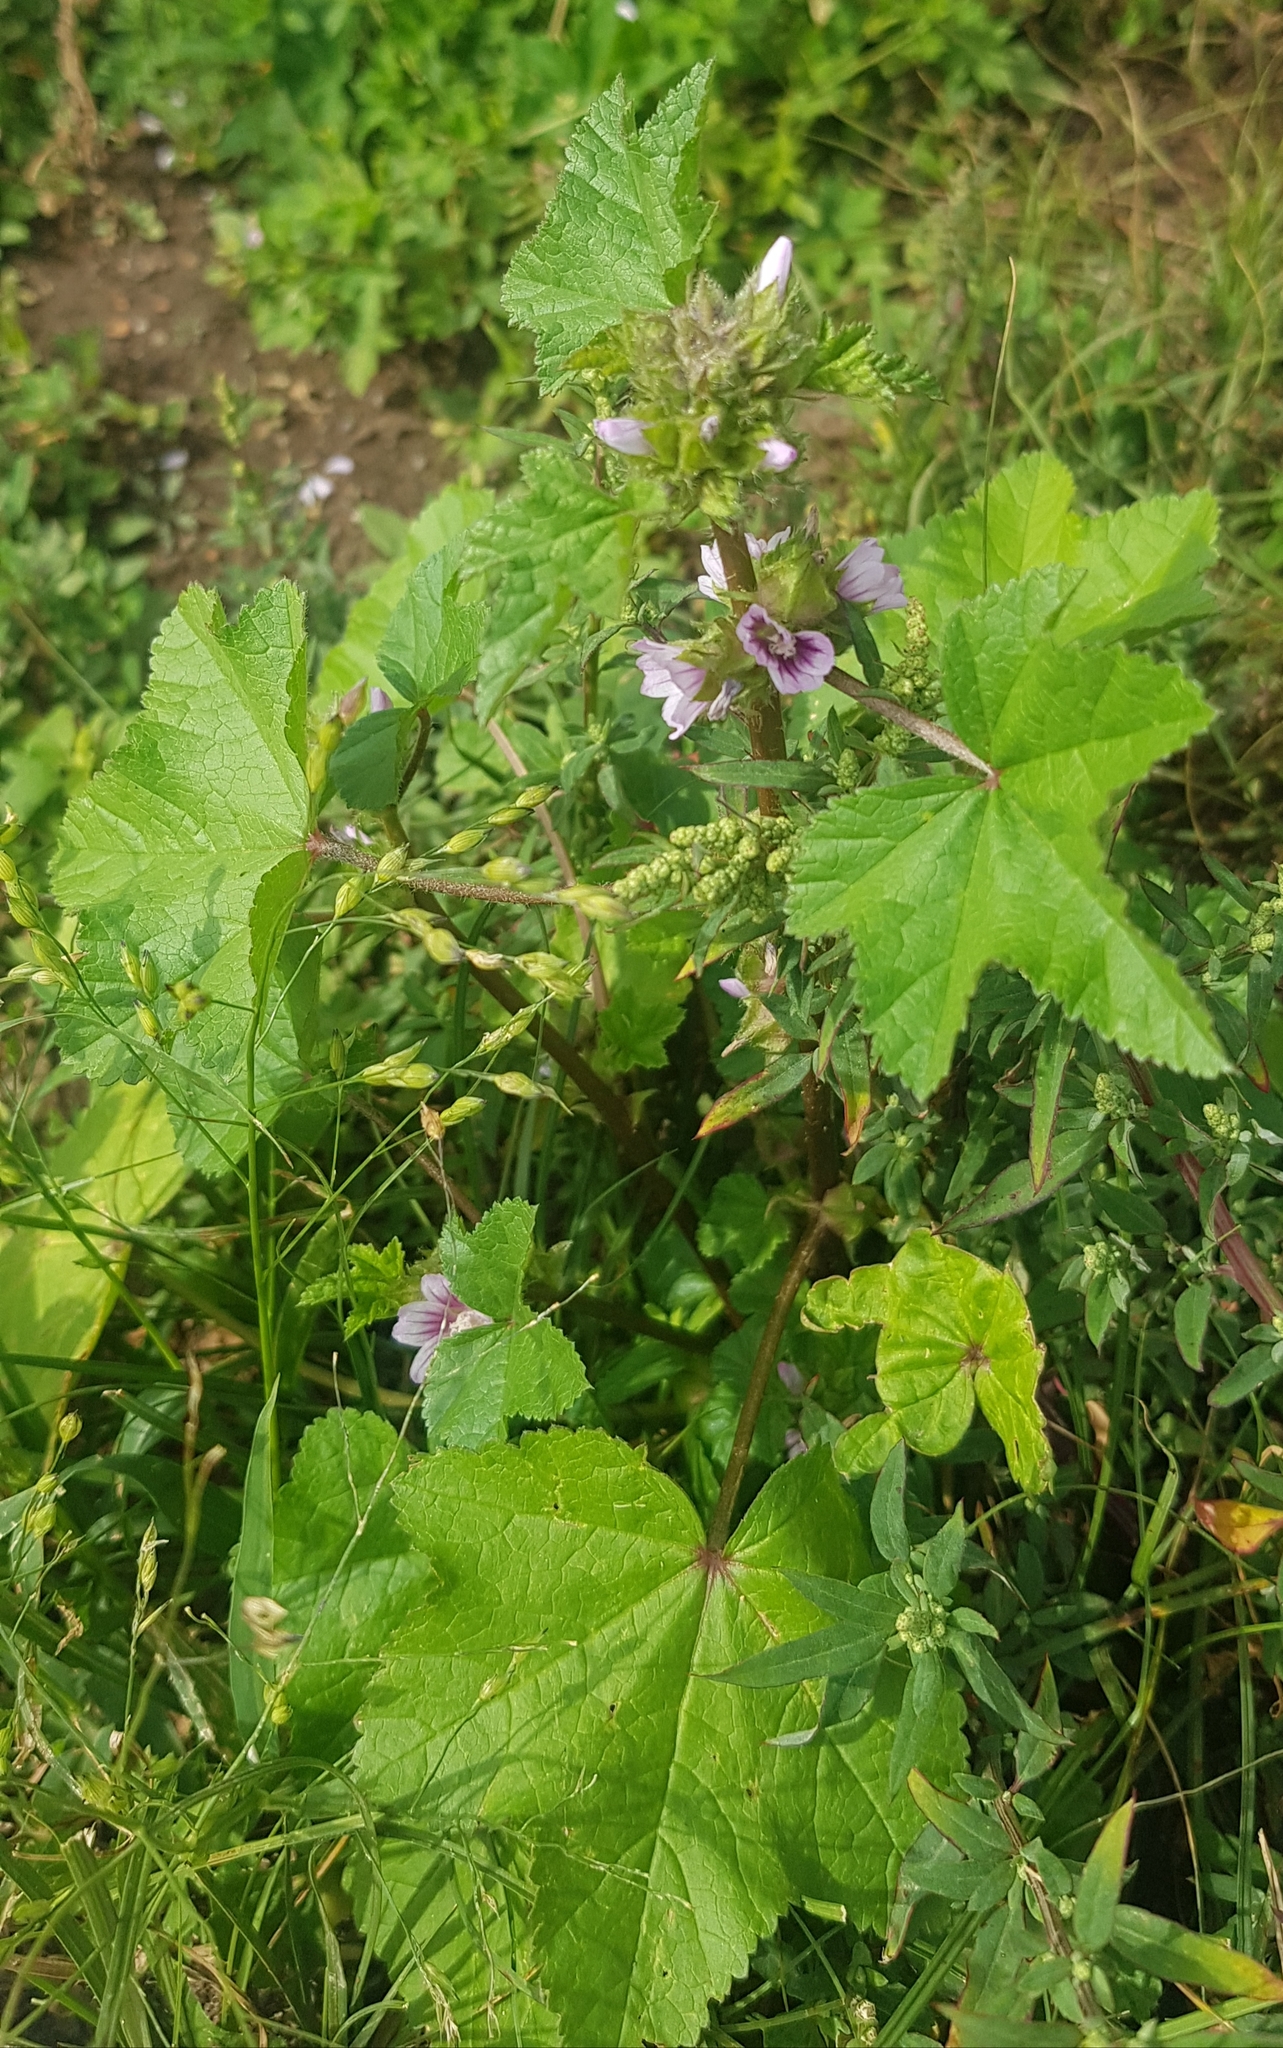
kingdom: Plantae
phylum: Tracheophyta
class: Magnoliopsida
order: Malvales
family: Malvaceae
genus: Malva
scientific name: Malva verticillata
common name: Chinese mallow
